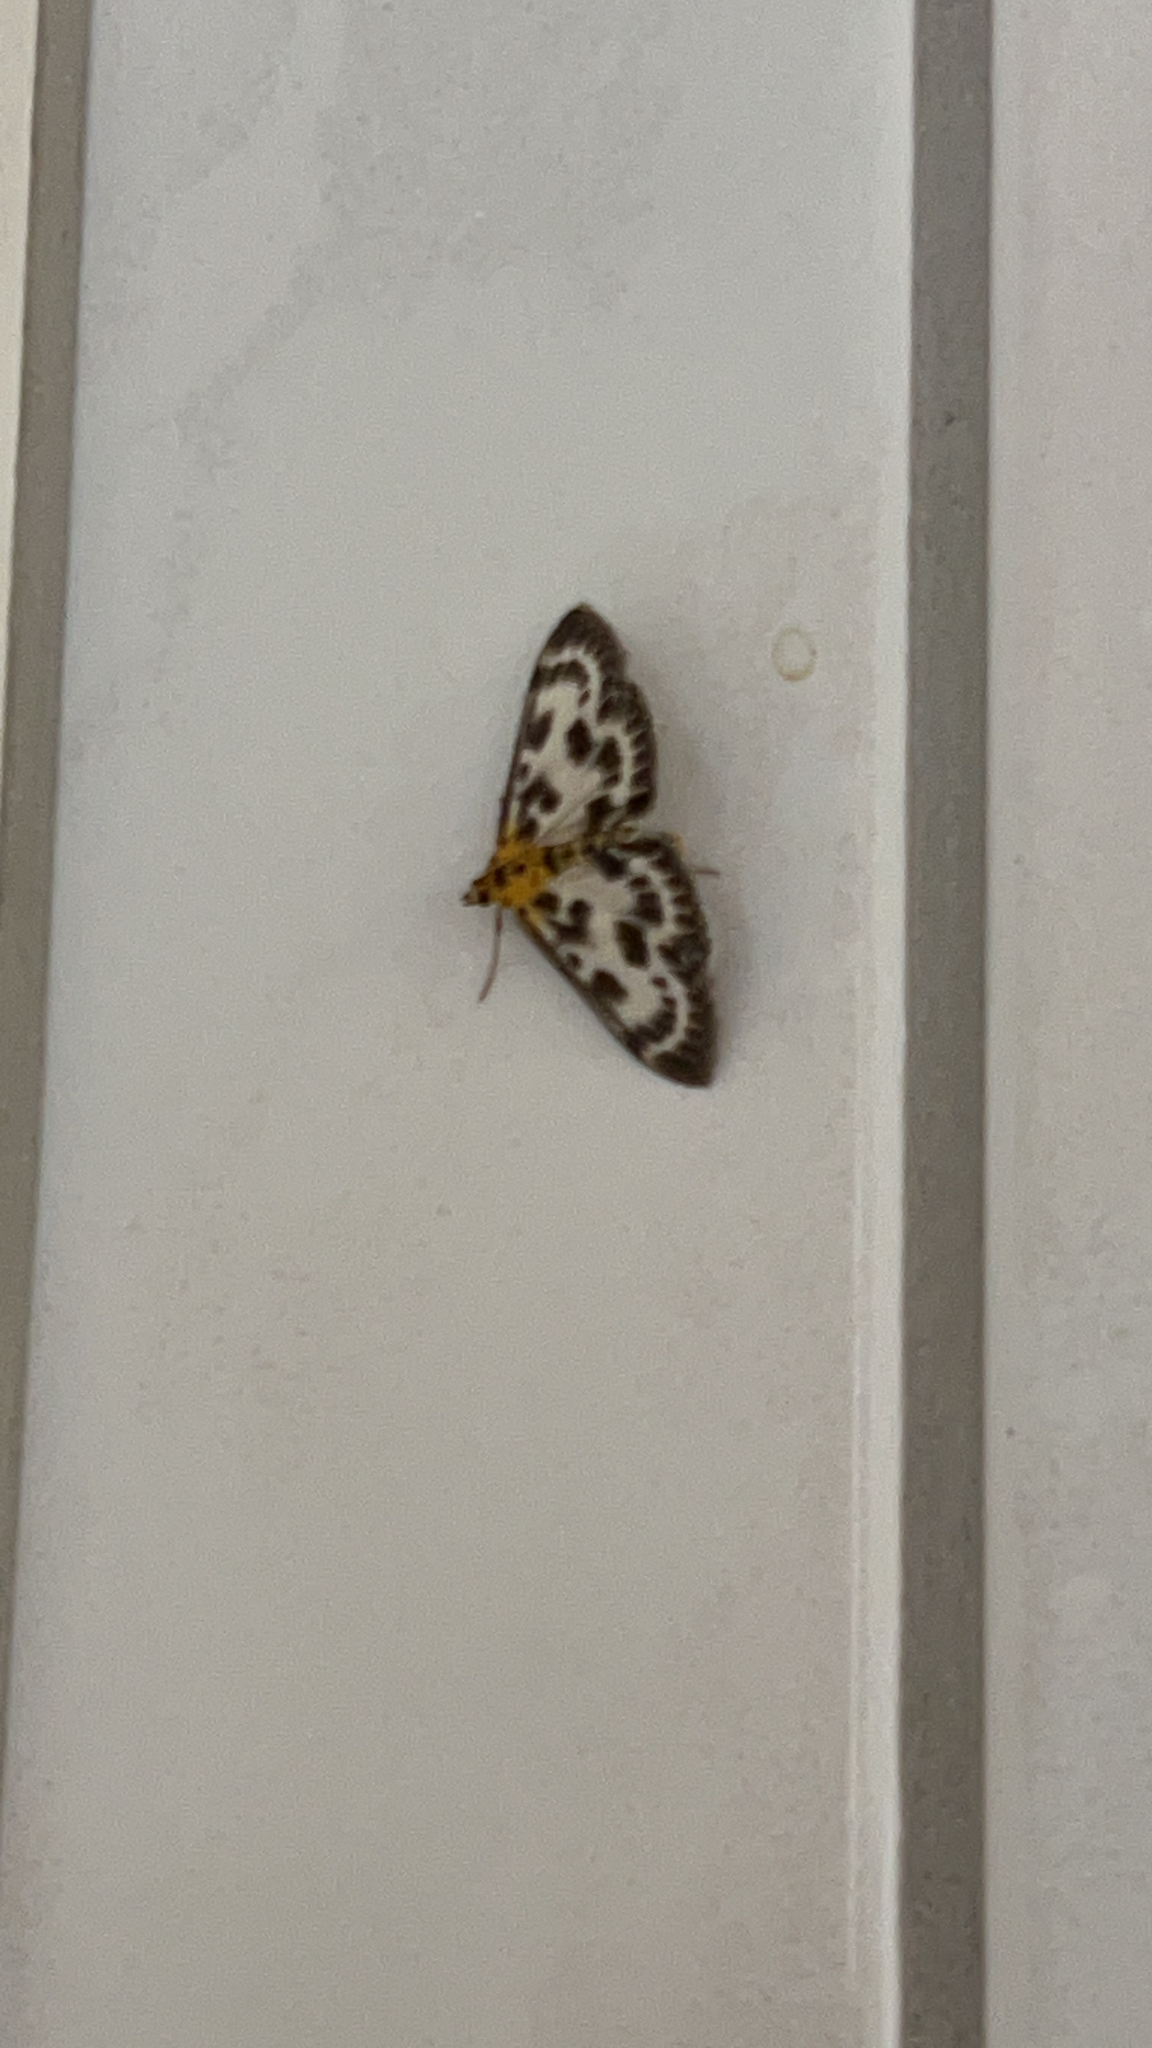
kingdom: Animalia
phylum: Arthropoda
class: Insecta
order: Lepidoptera
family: Crambidae
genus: Anania
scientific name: Anania hortulata
